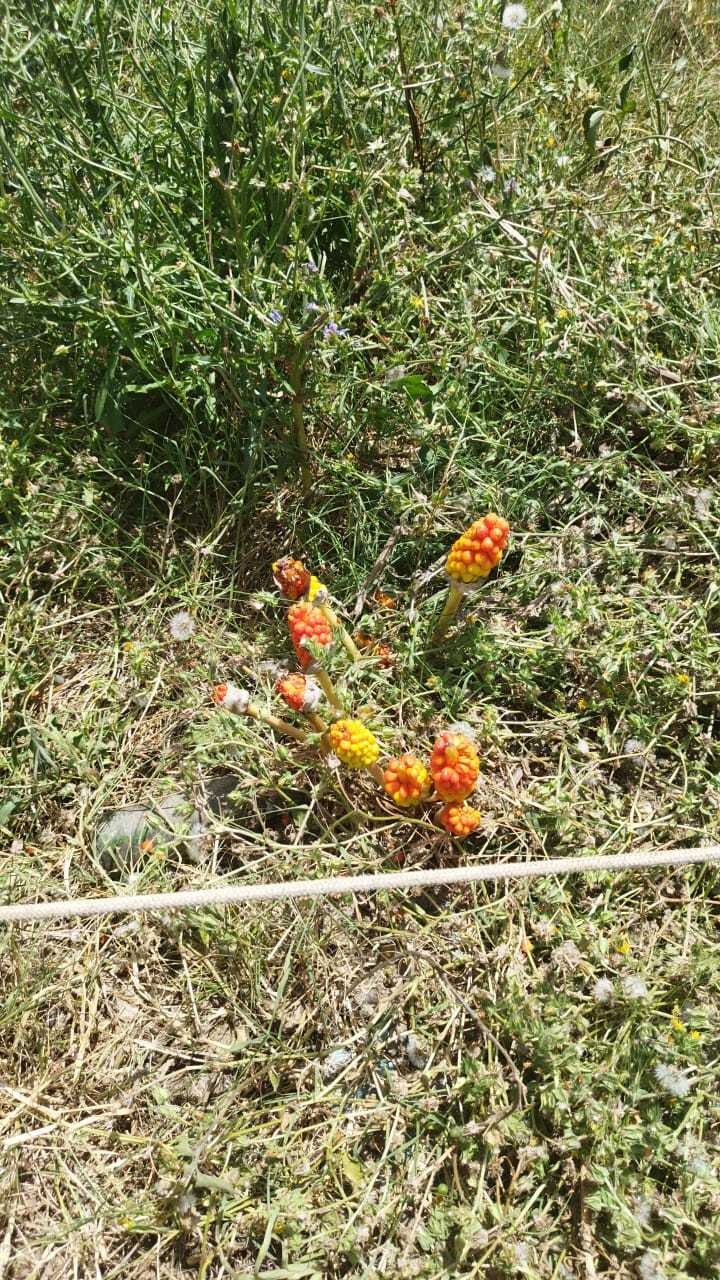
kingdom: Plantae
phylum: Tracheophyta
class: Liliopsida
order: Alismatales
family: Araceae
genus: Arum
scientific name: Arum italicum
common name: Italian lords-and-ladies
